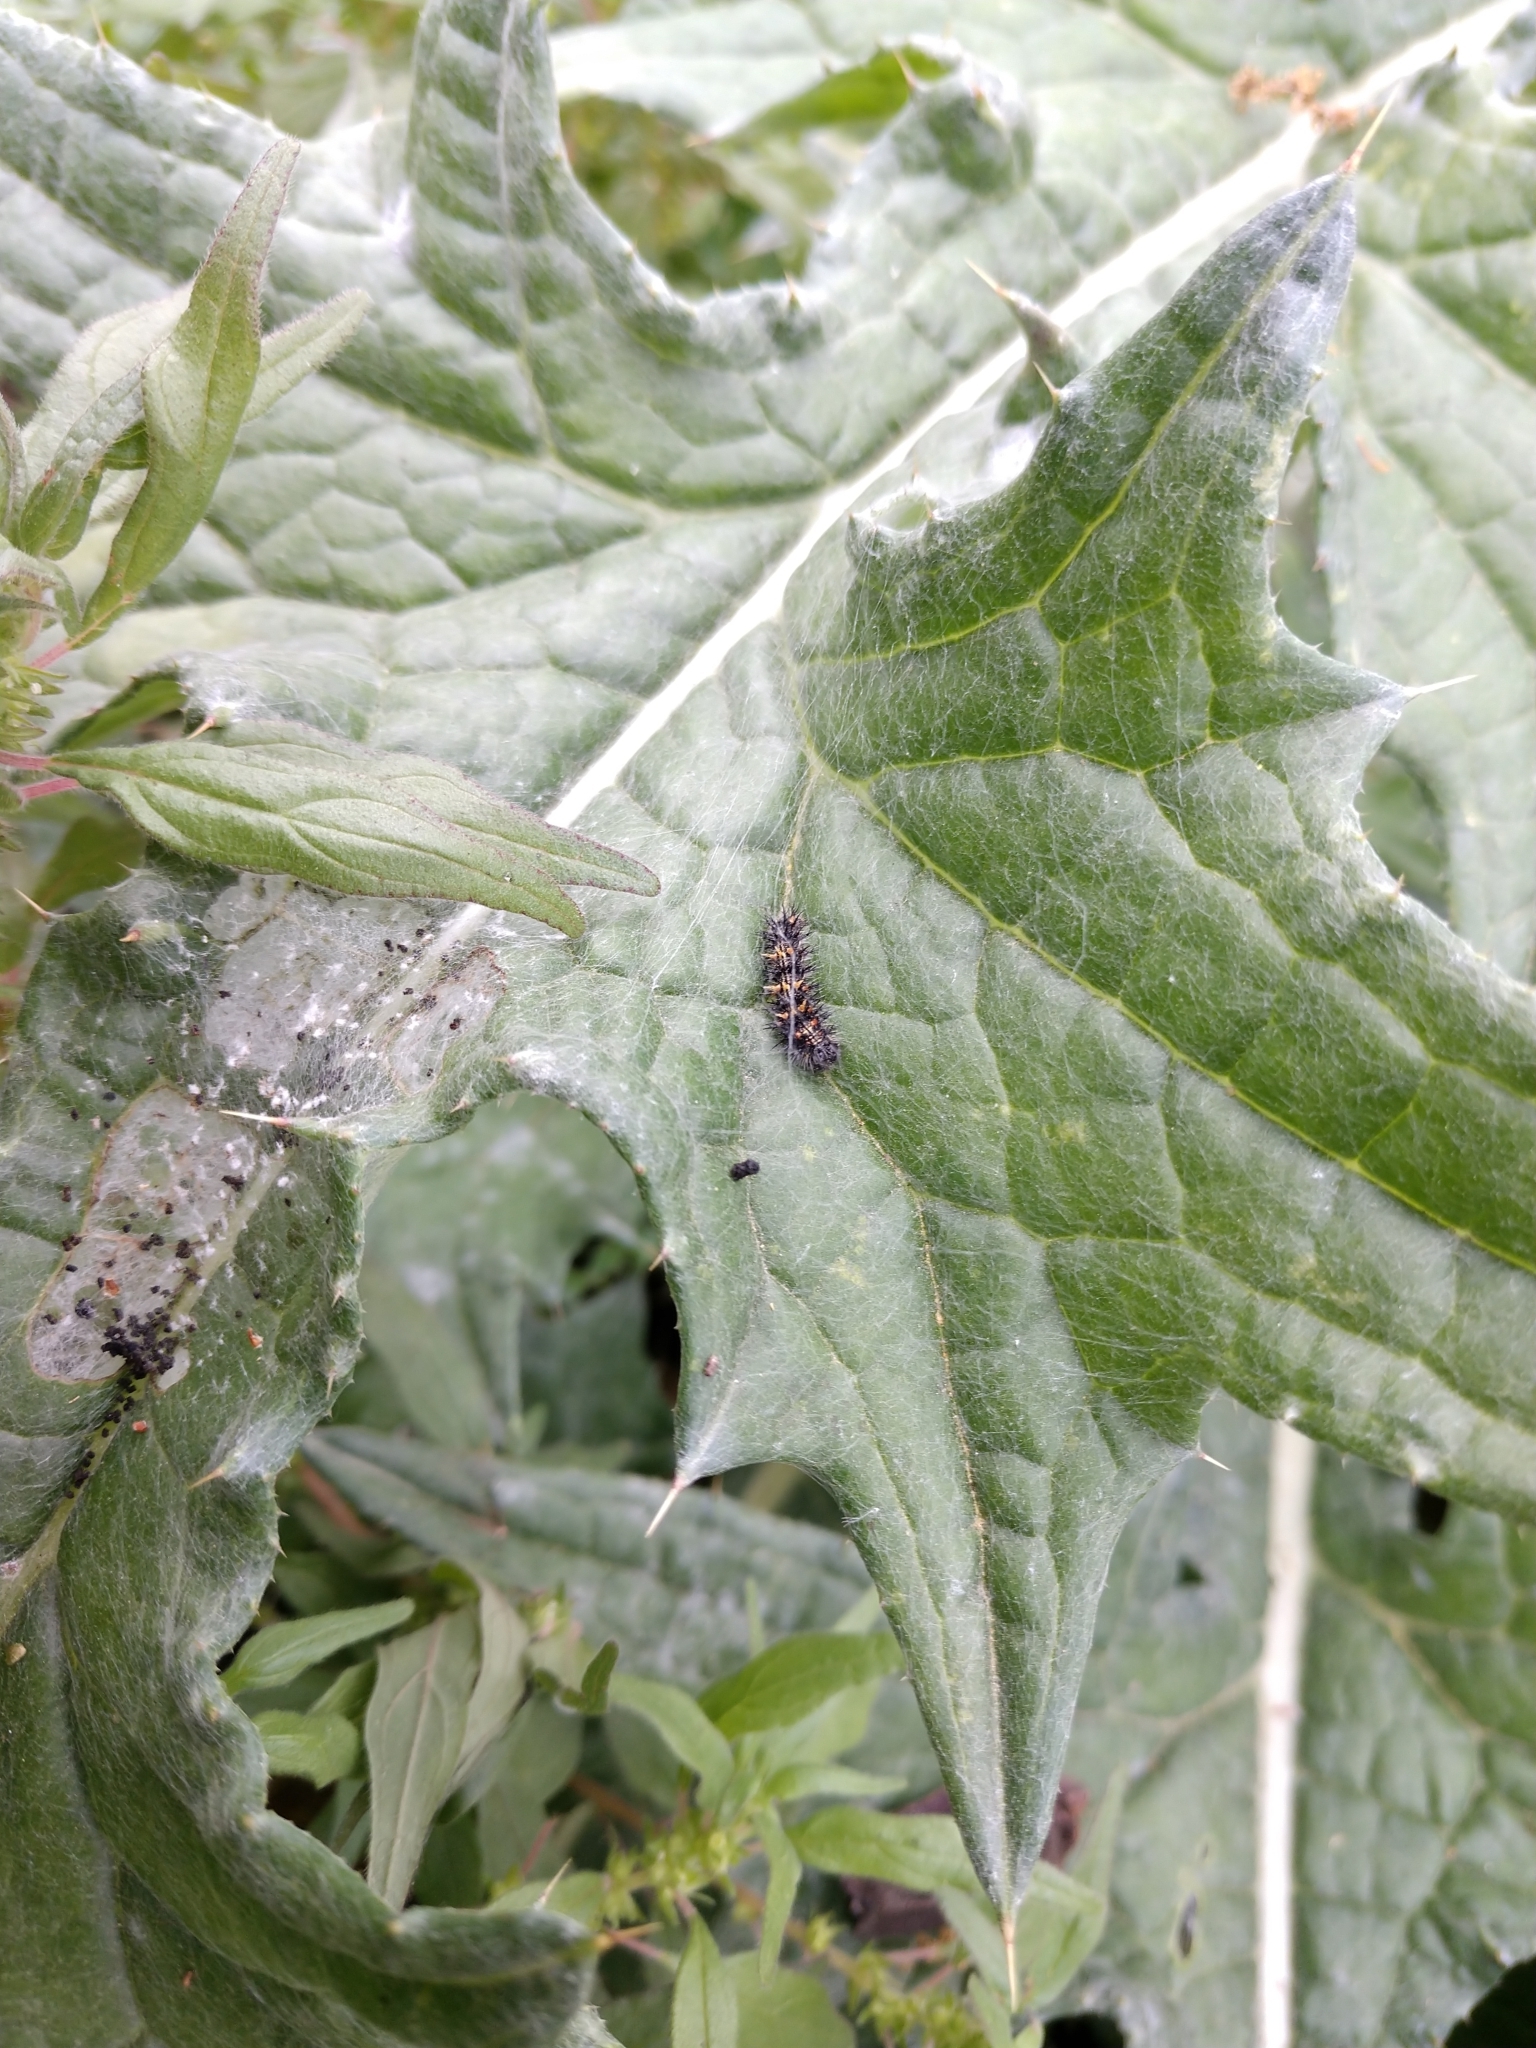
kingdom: Animalia
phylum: Arthropoda
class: Insecta
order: Lepidoptera
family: Nymphalidae
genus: Vanessa
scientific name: Vanessa cardui
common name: Painted lady
